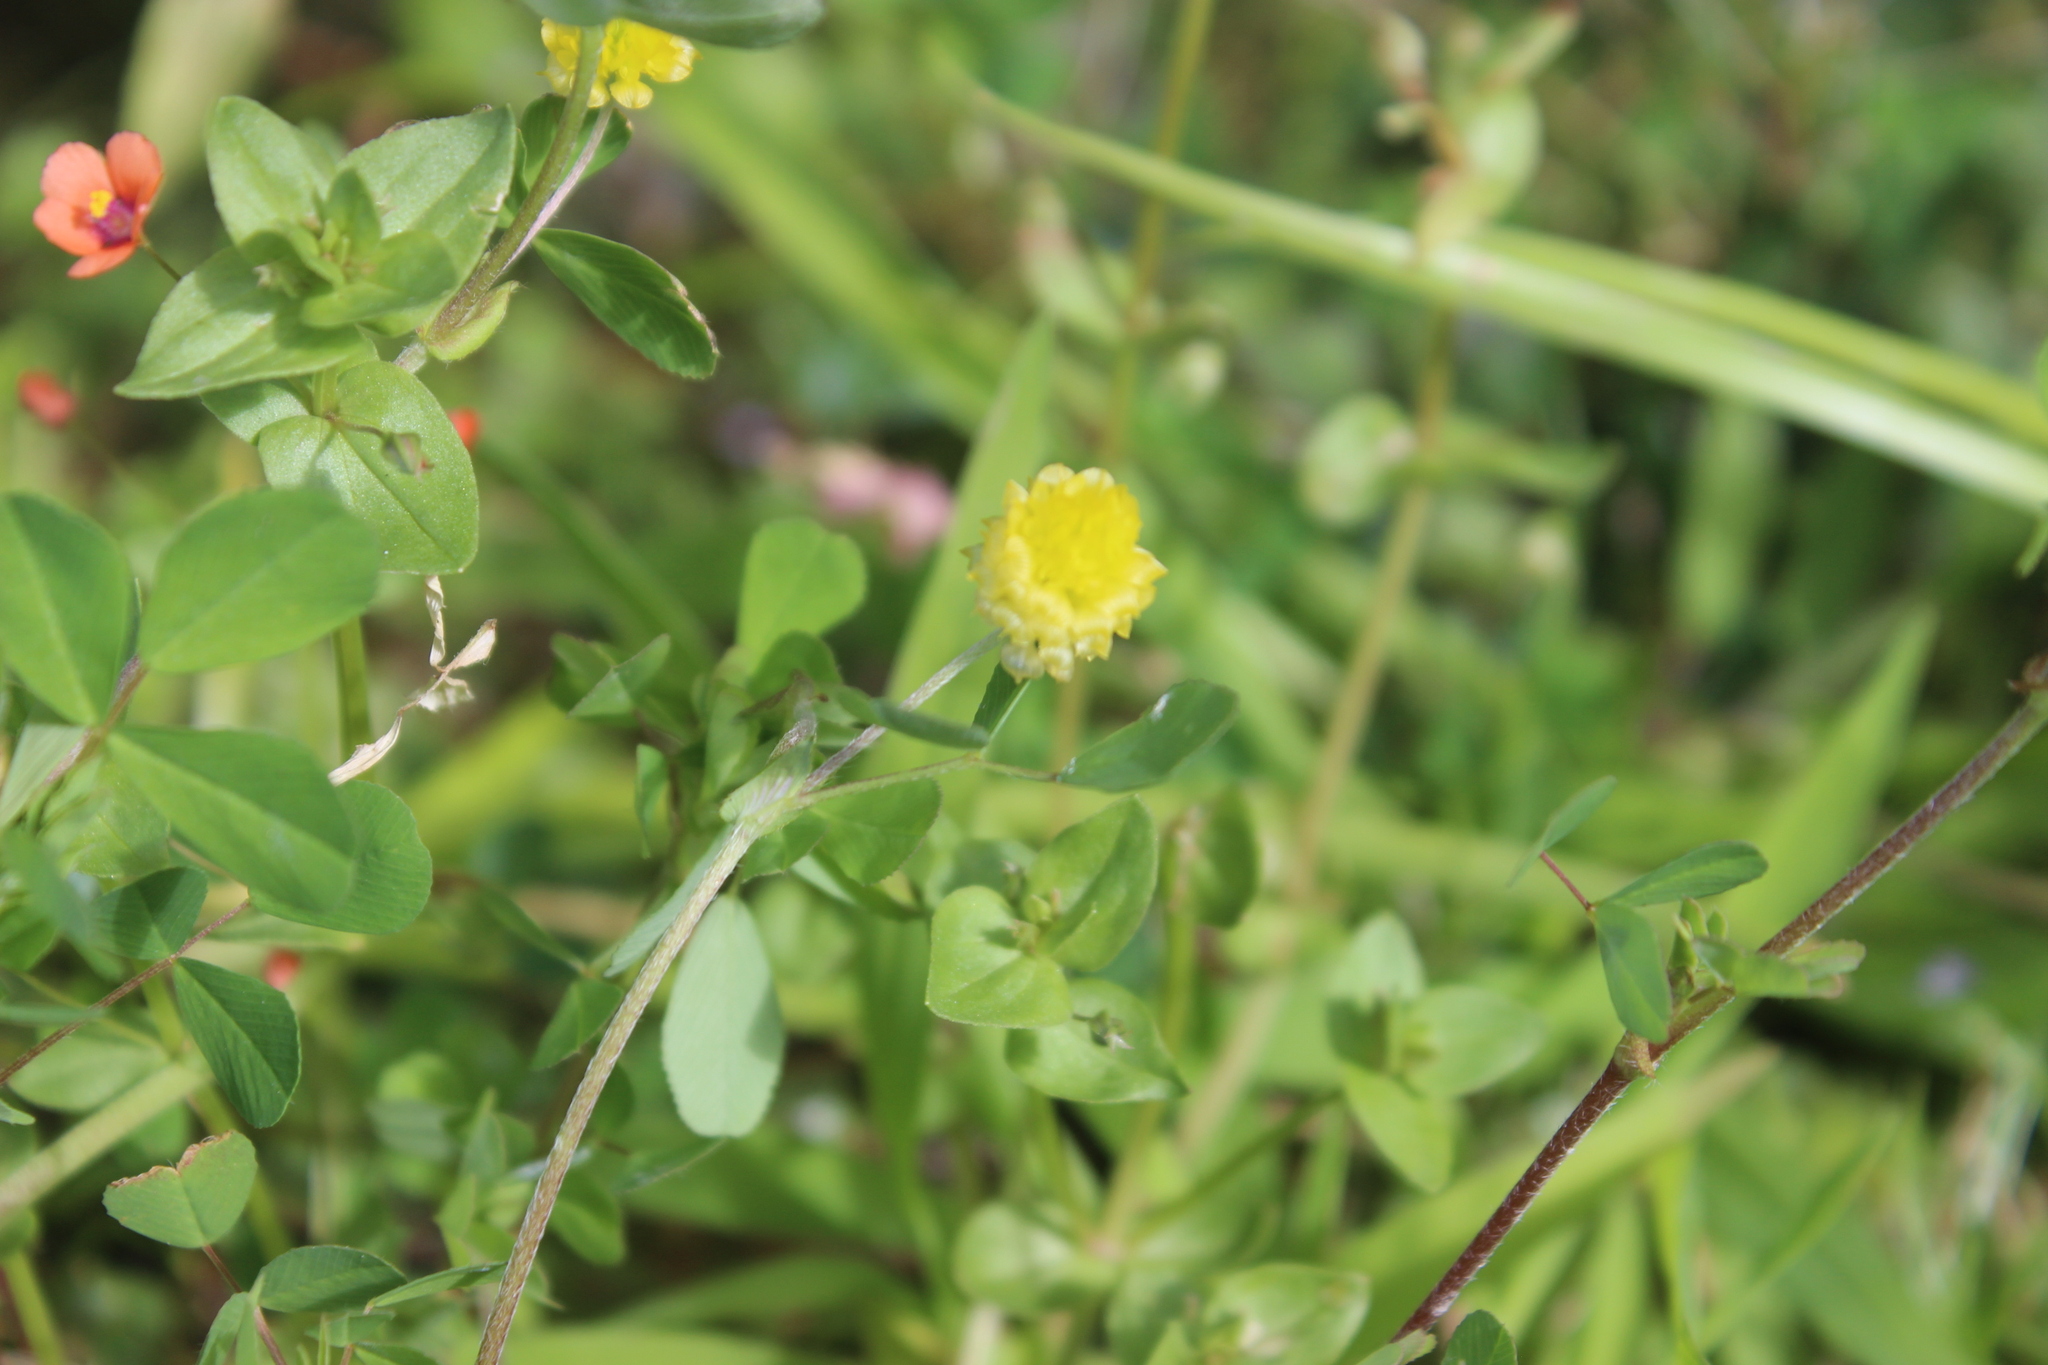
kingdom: Plantae
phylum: Tracheophyta
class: Magnoliopsida
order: Fabales
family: Fabaceae
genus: Trifolium
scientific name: Trifolium campestre
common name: Field clover
